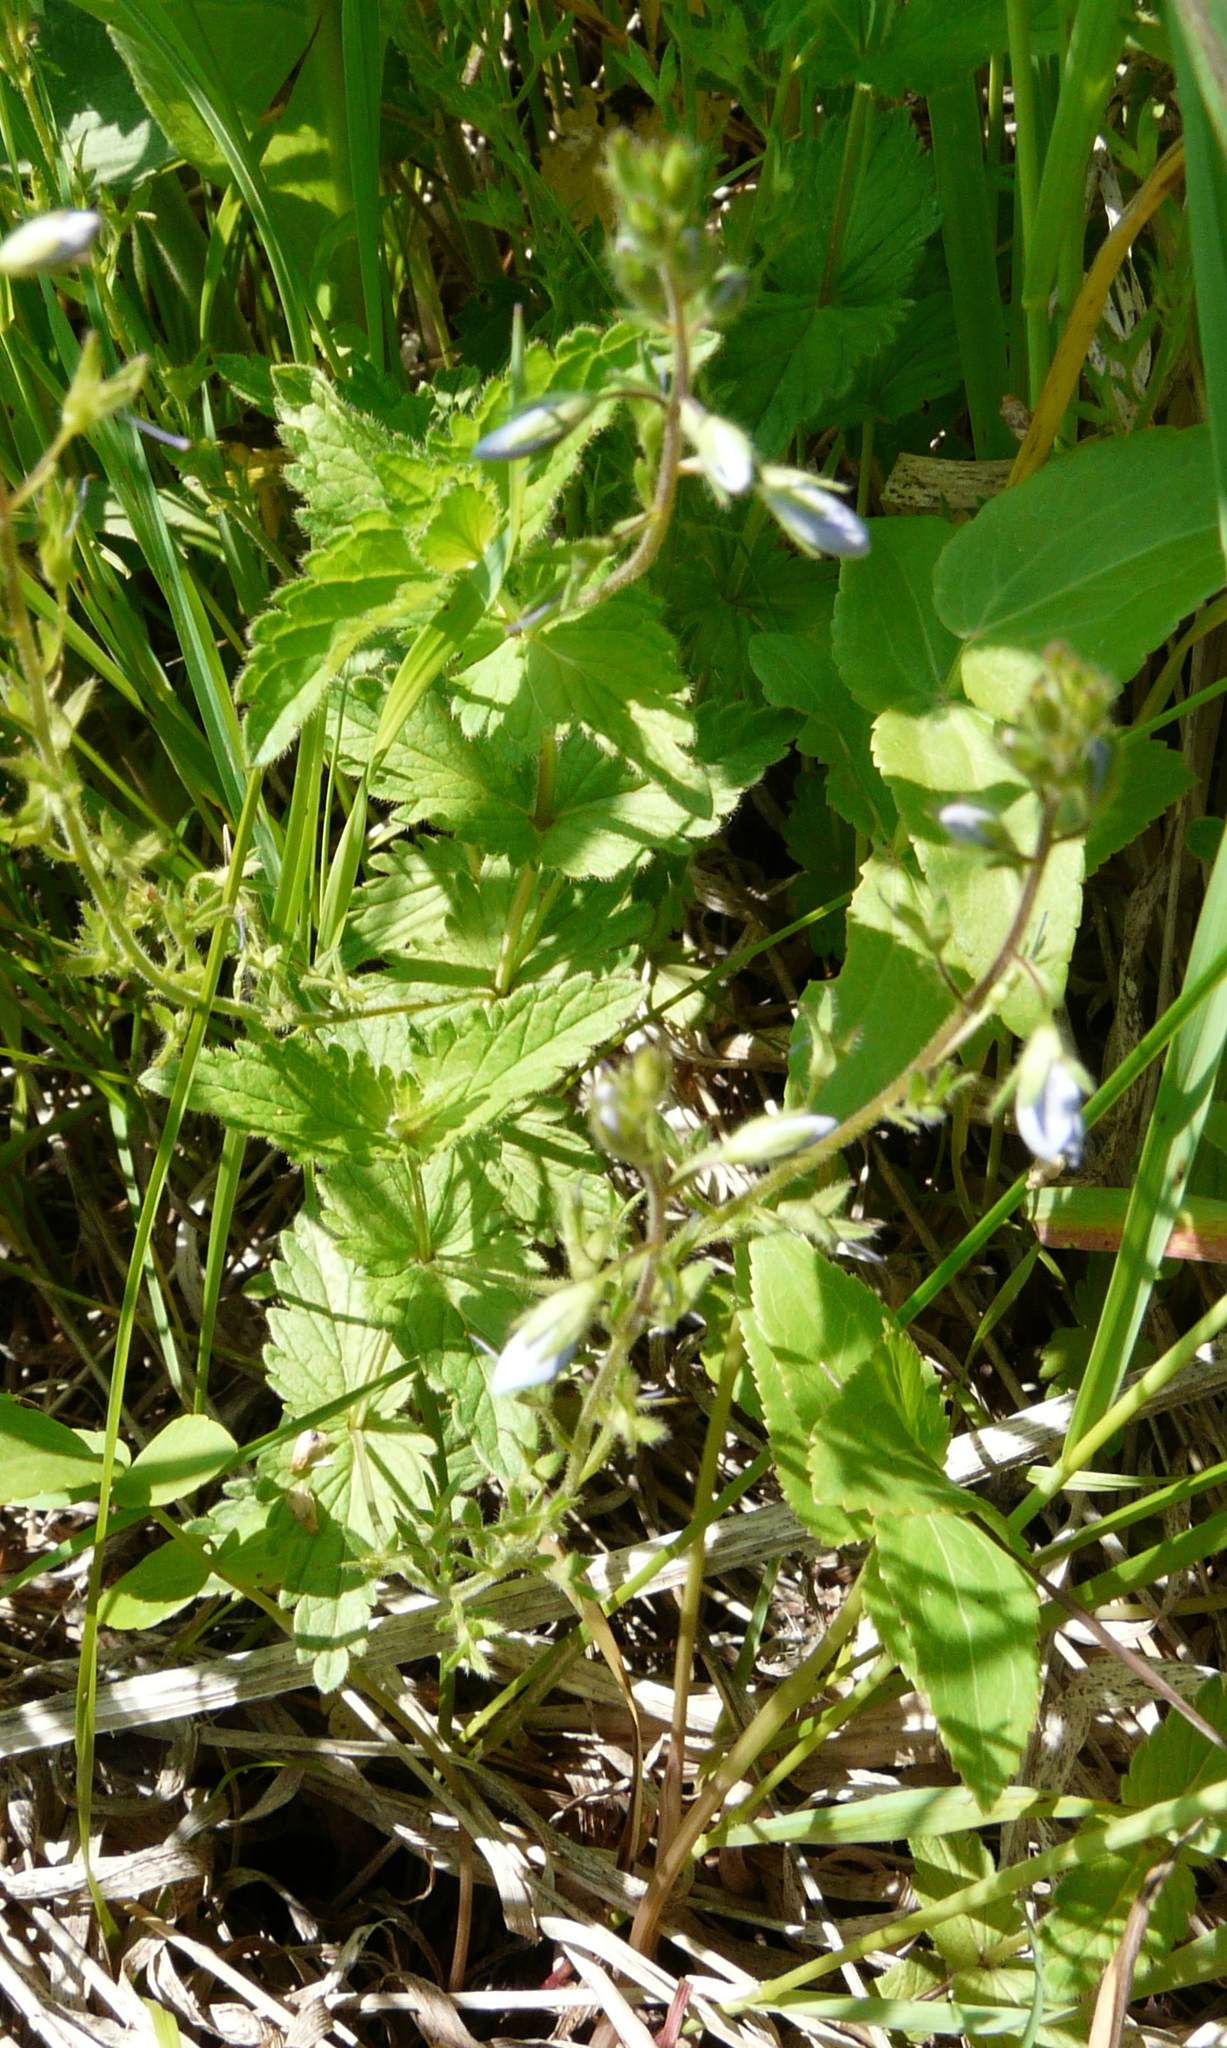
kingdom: Plantae
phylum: Tracheophyta
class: Magnoliopsida
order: Lamiales
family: Plantaginaceae
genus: Veronica
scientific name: Veronica chamaedrys
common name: Germander speedwell
